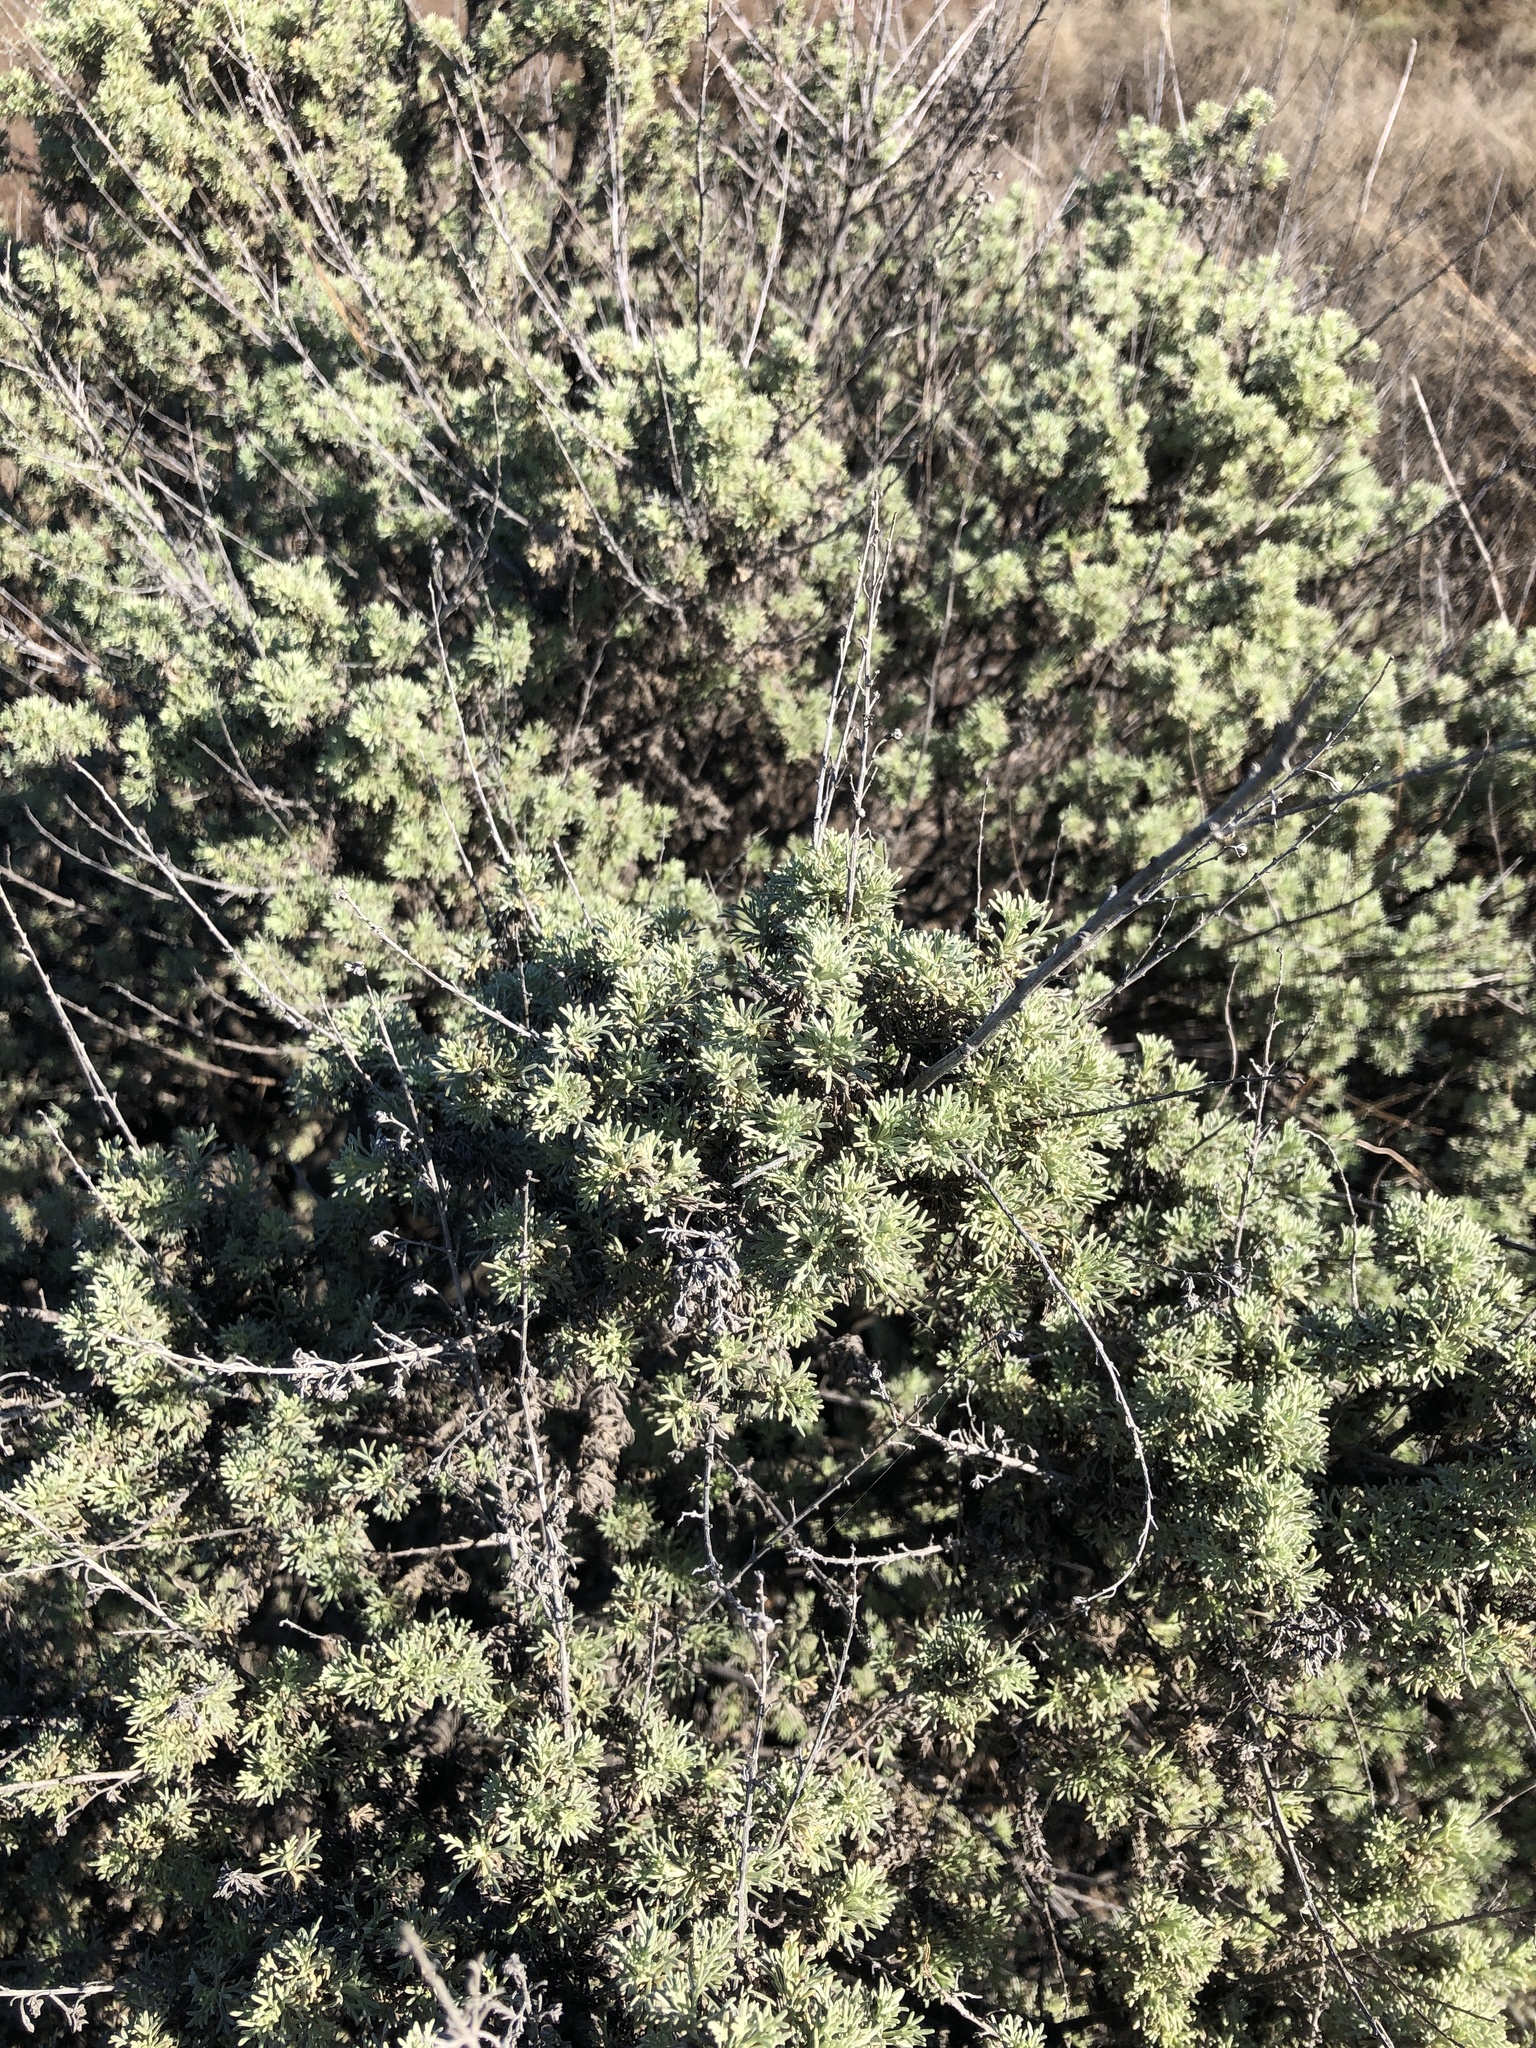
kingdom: Plantae
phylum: Tracheophyta
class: Magnoliopsida
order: Asterales
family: Asteraceae
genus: Artemisia
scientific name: Artemisia californica
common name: California sagebrush
